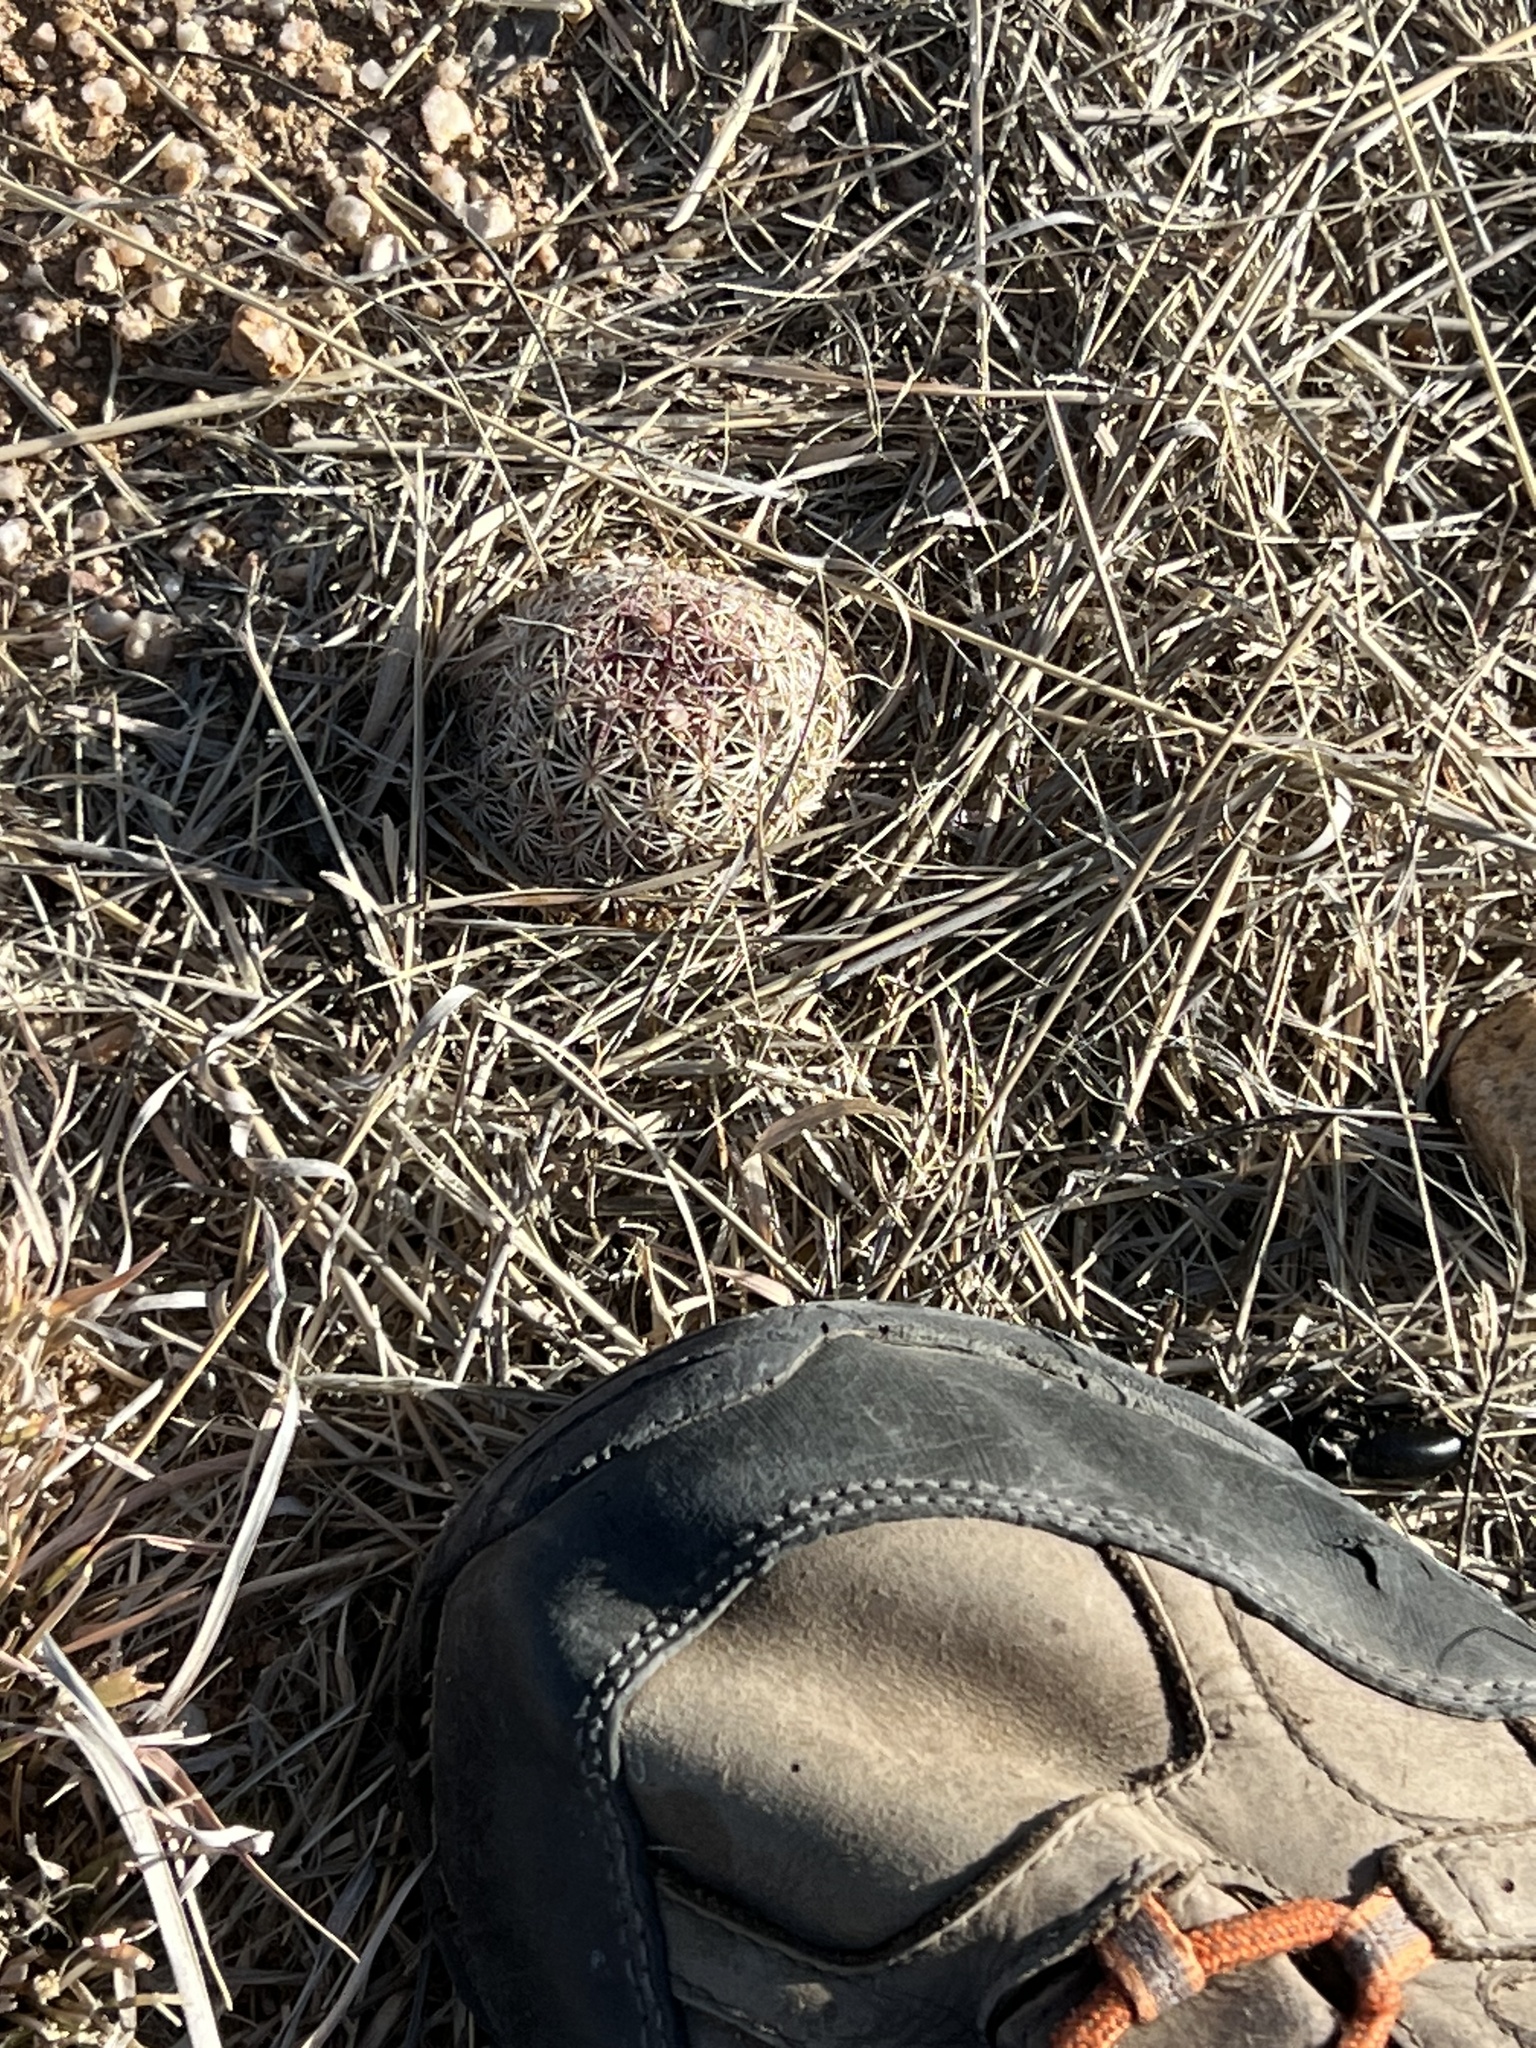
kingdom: Plantae
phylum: Tracheophyta
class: Magnoliopsida
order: Caryophyllales
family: Cactaceae
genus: Sclerocactus
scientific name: Sclerocactus johnsonii
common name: Eight-spine fishhook cactus
